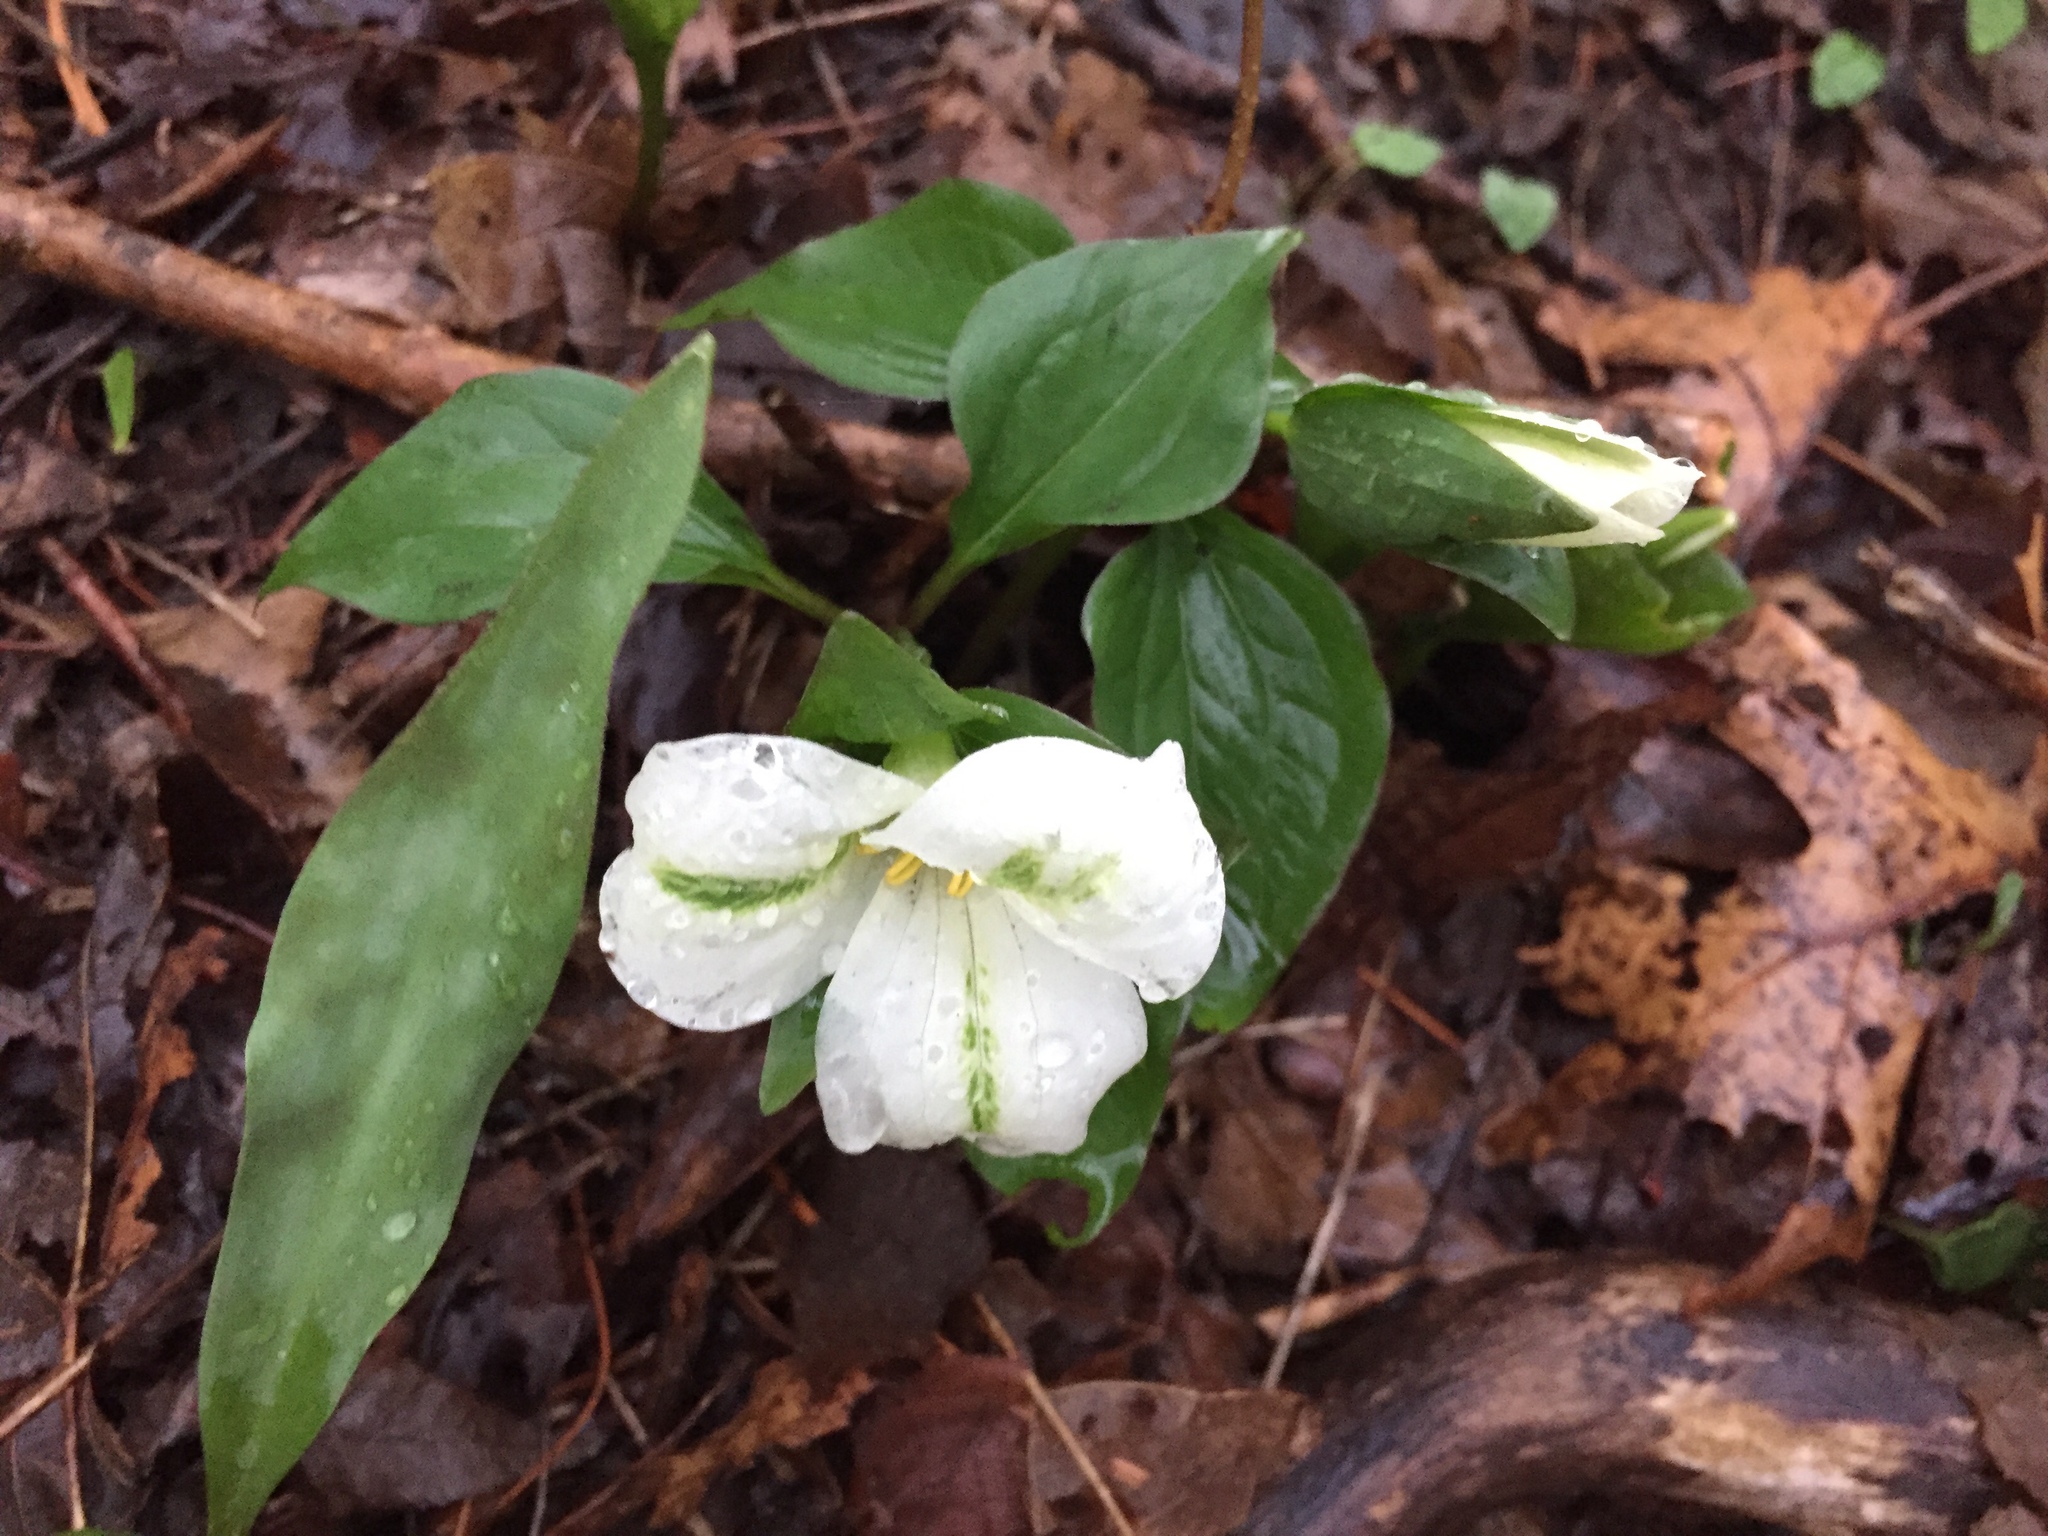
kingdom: Plantae
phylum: Tracheophyta
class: Liliopsida
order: Liliales
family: Melanthiaceae
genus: Trillium
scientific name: Trillium grandiflorum
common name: Great white trillium
